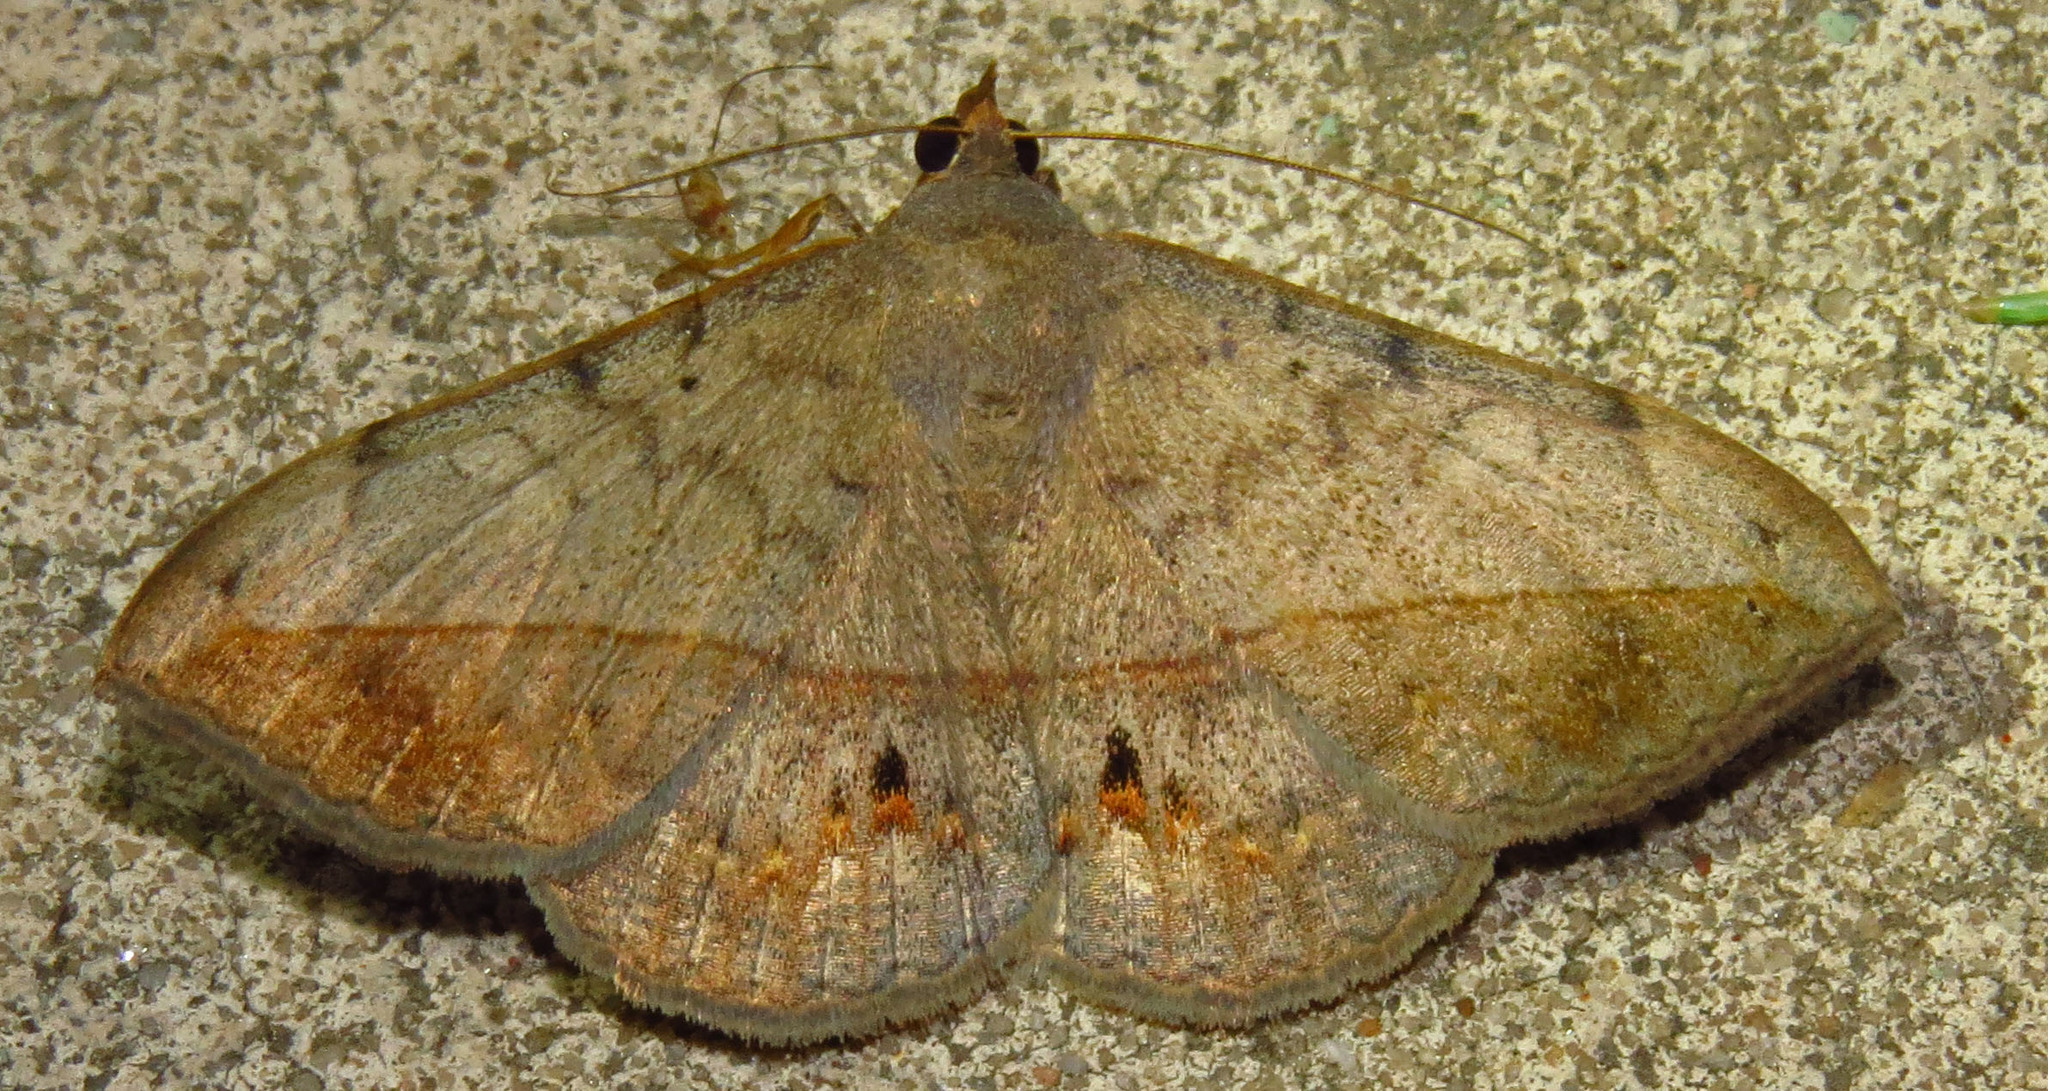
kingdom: Animalia
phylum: Arthropoda
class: Insecta
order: Lepidoptera
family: Erebidae
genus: Anticarsia
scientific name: Anticarsia gemmatalis
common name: Cutworm moth
